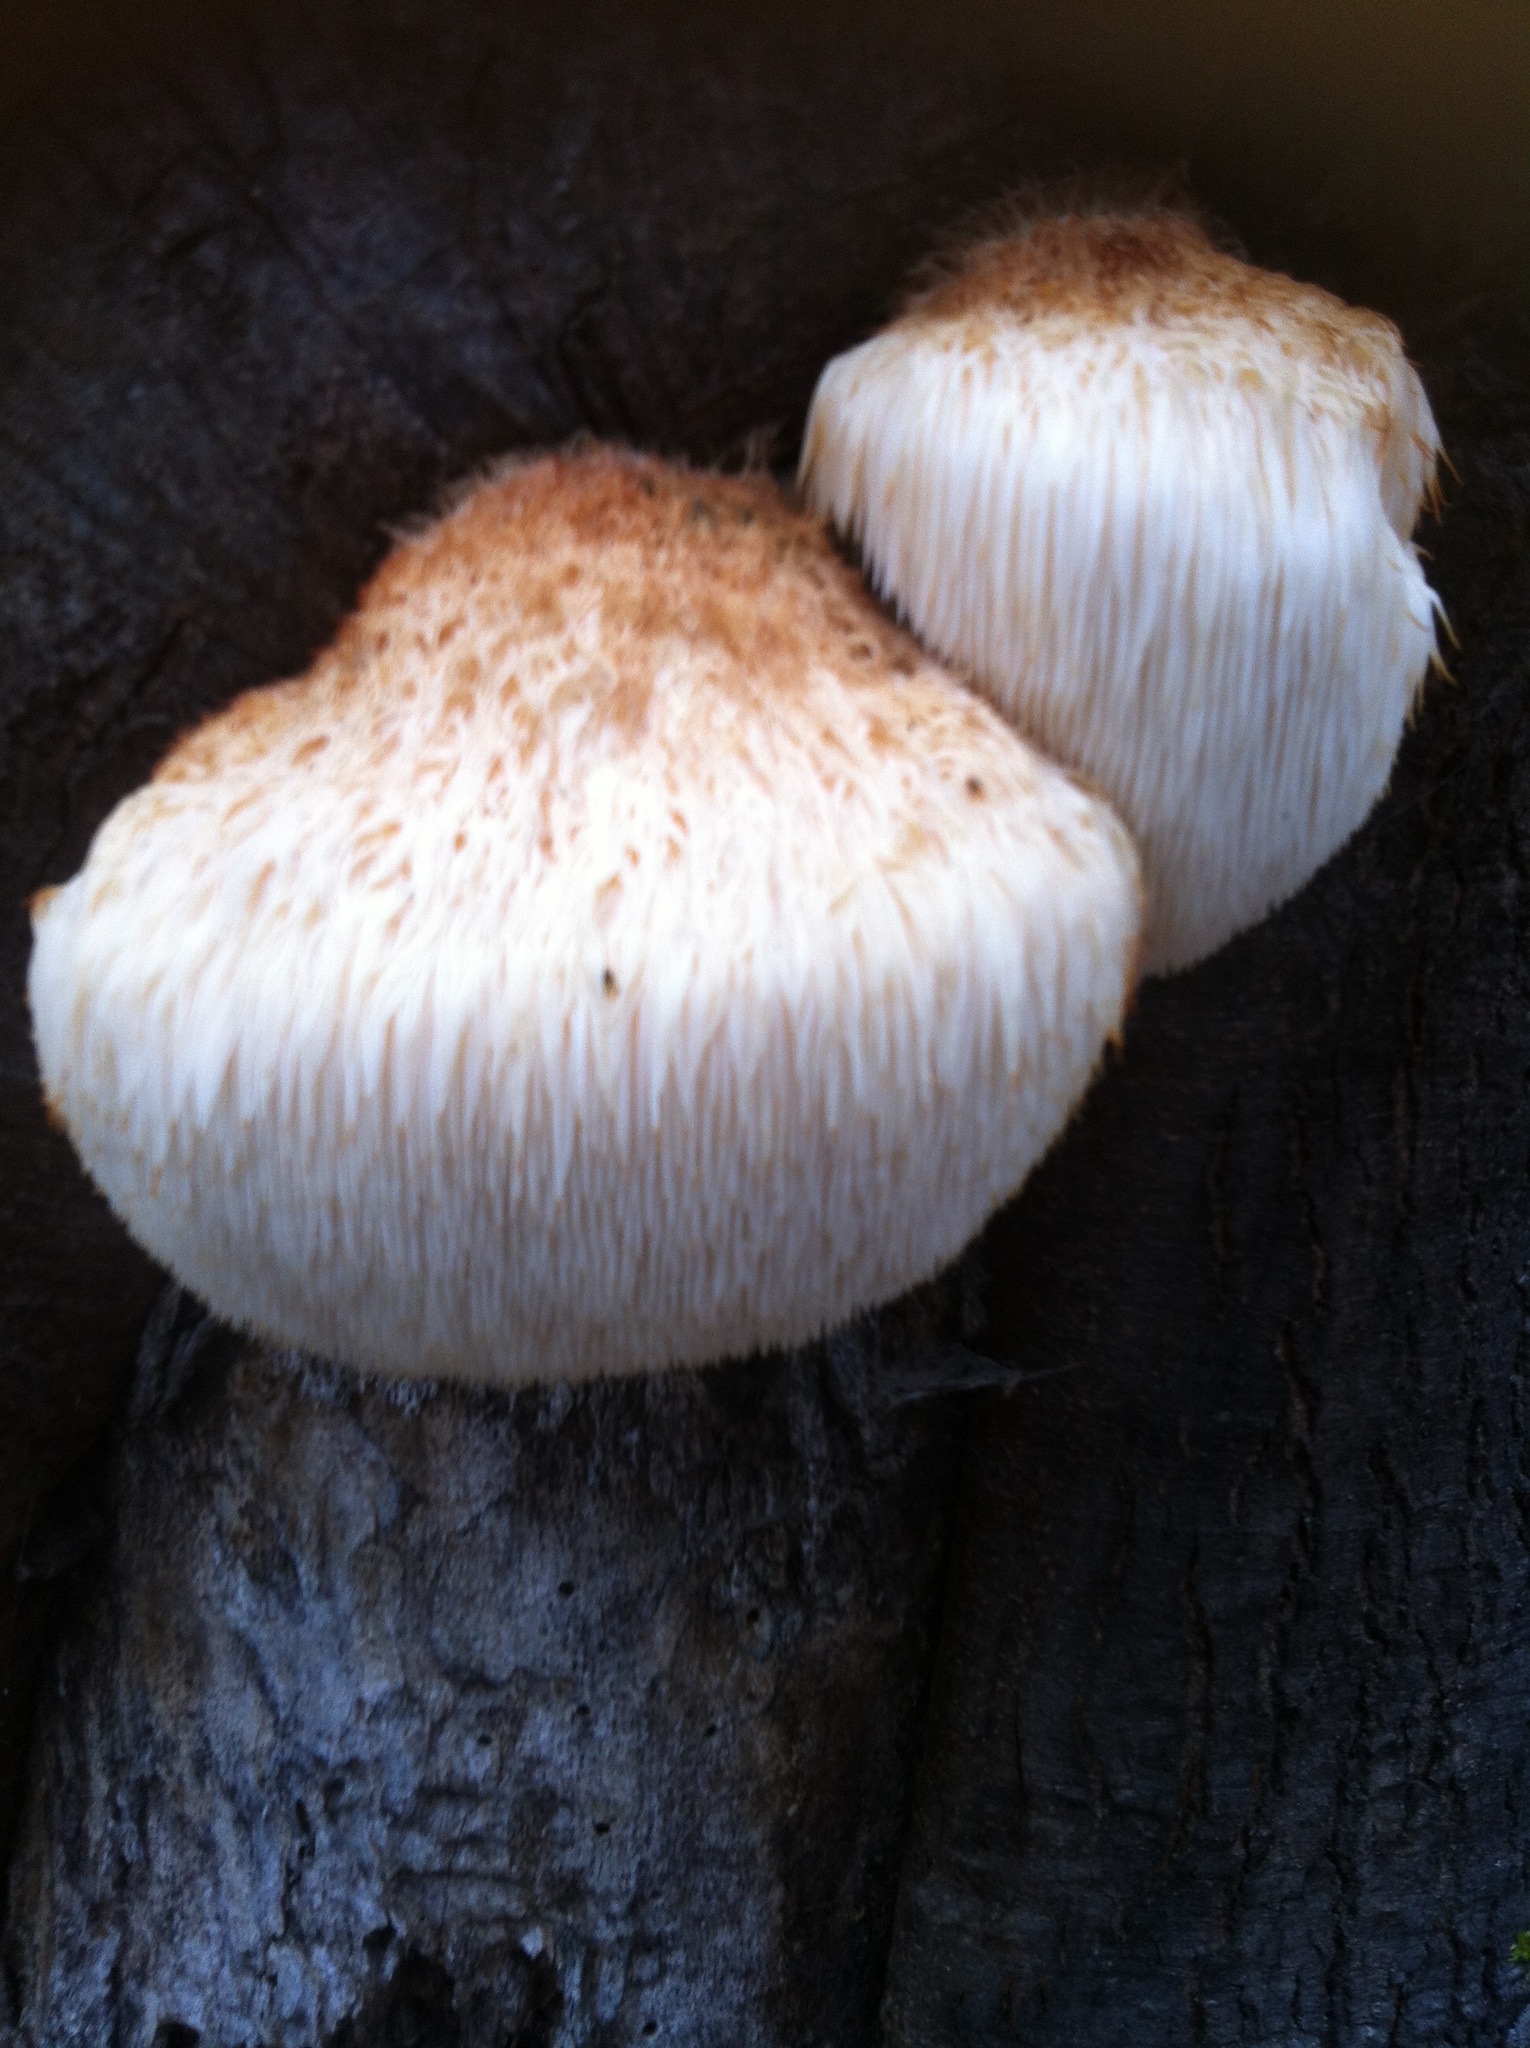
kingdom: Fungi
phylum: Basidiomycota
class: Agaricomycetes
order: Russulales
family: Hericiaceae
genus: Hericium
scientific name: Hericium erinaceus
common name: Bearded tooth
